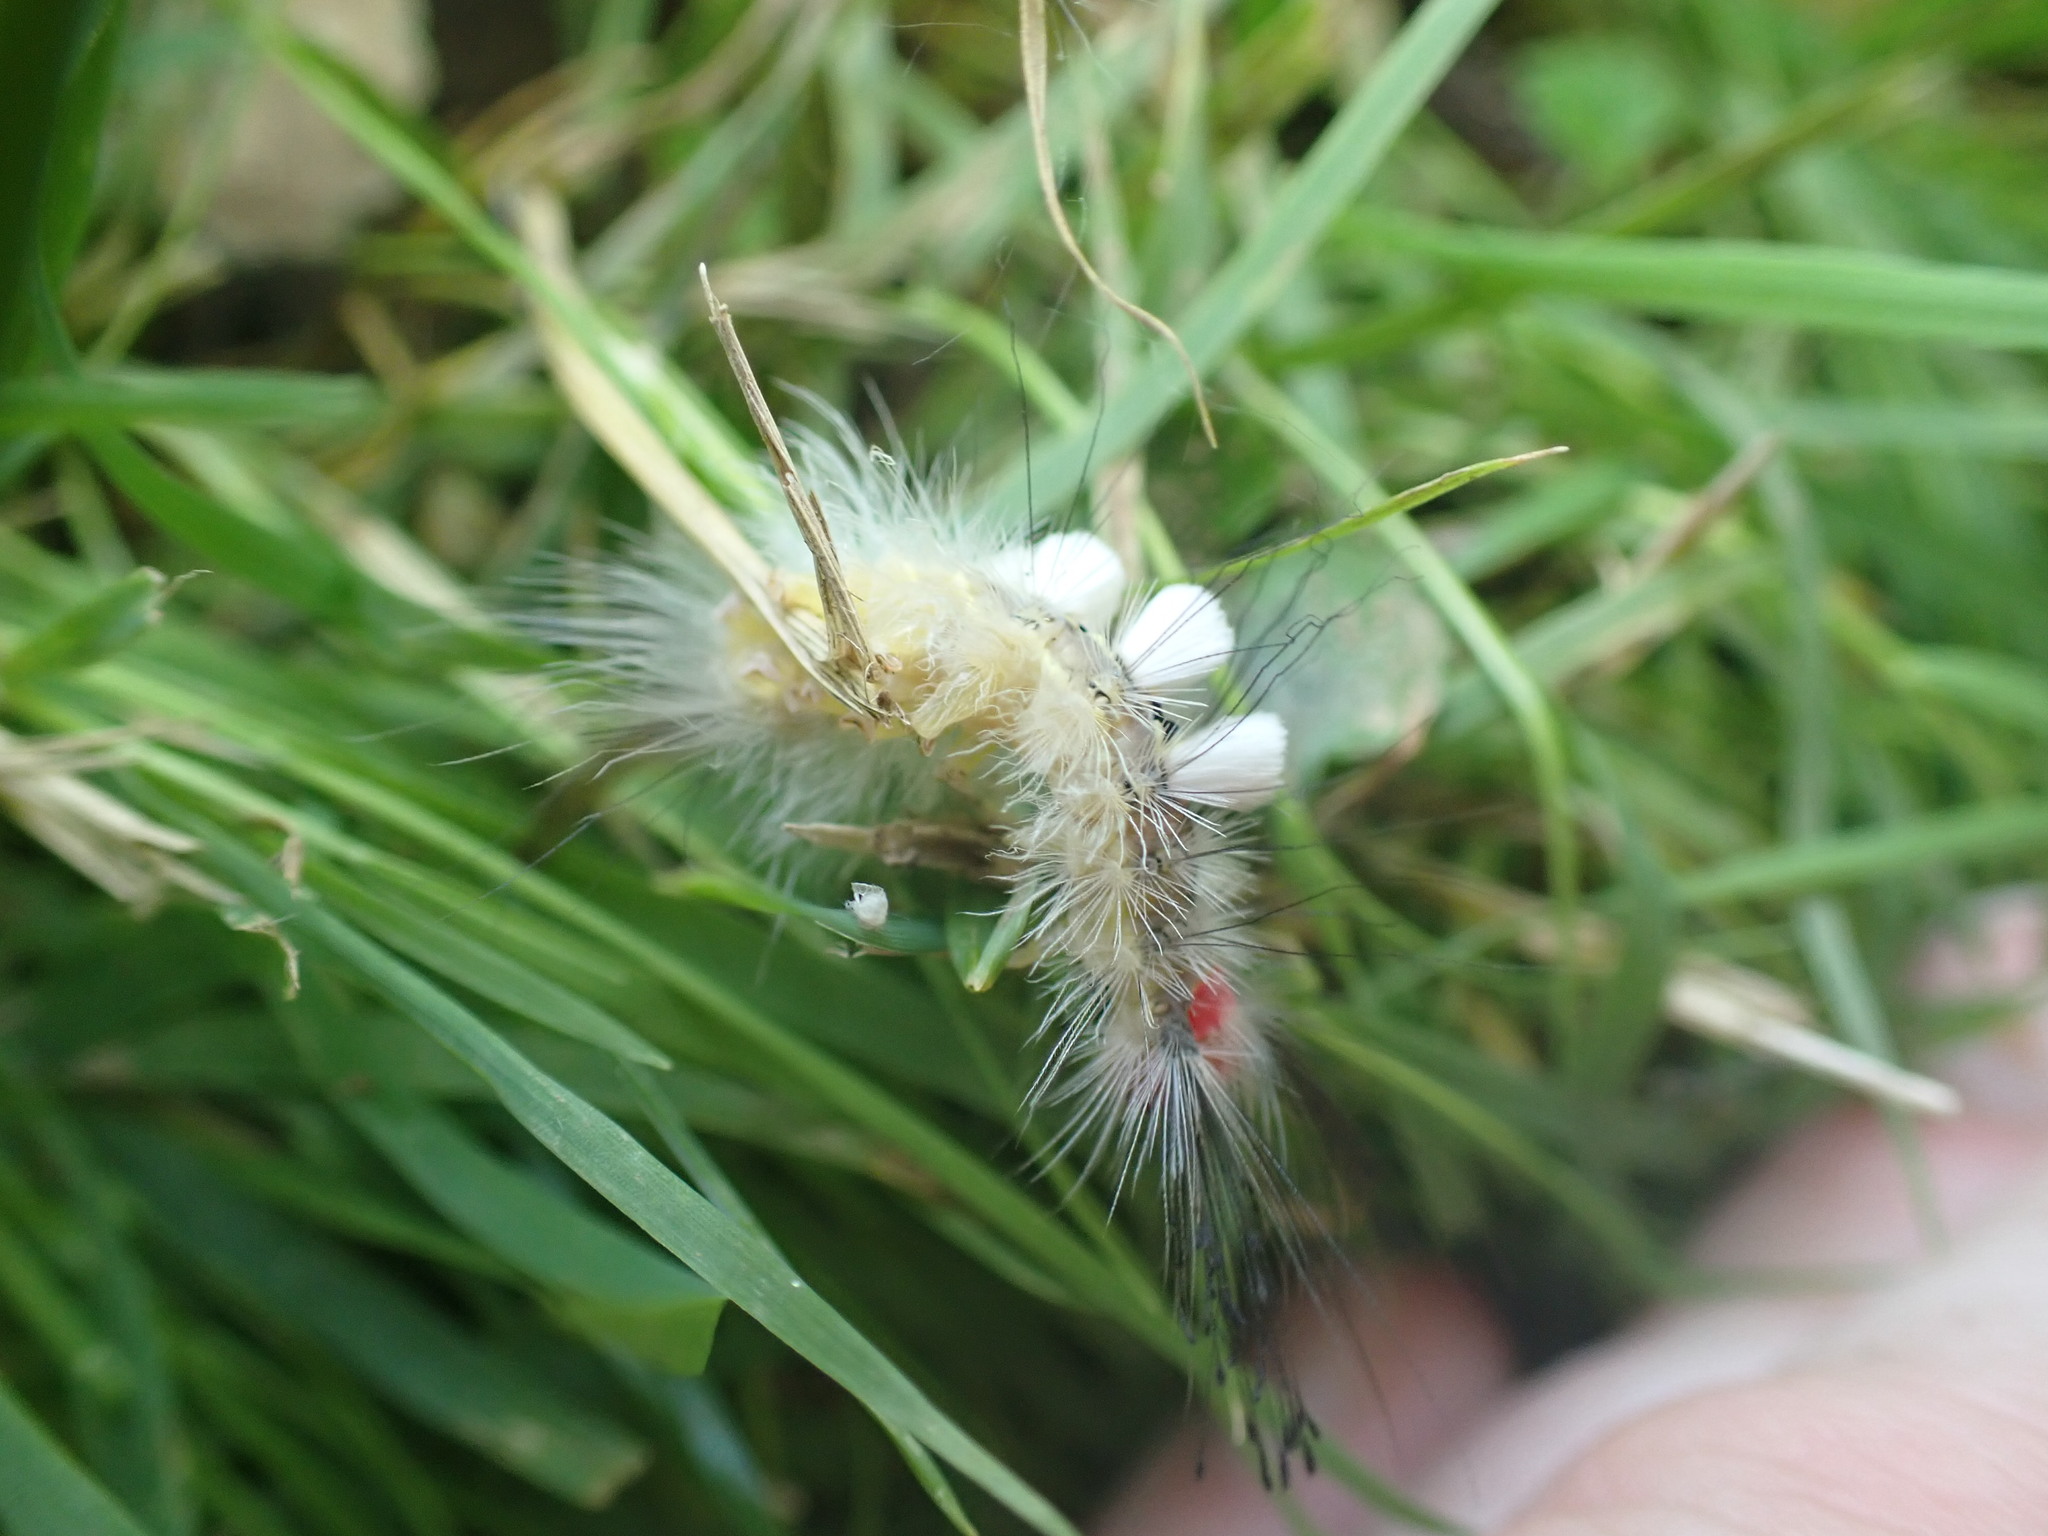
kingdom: Animalia
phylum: Arthropoda
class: Insecta
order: Lepidoptera
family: Erebidae
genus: Orgyia
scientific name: Orgyia leucostigma
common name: White-marked tussock moth
